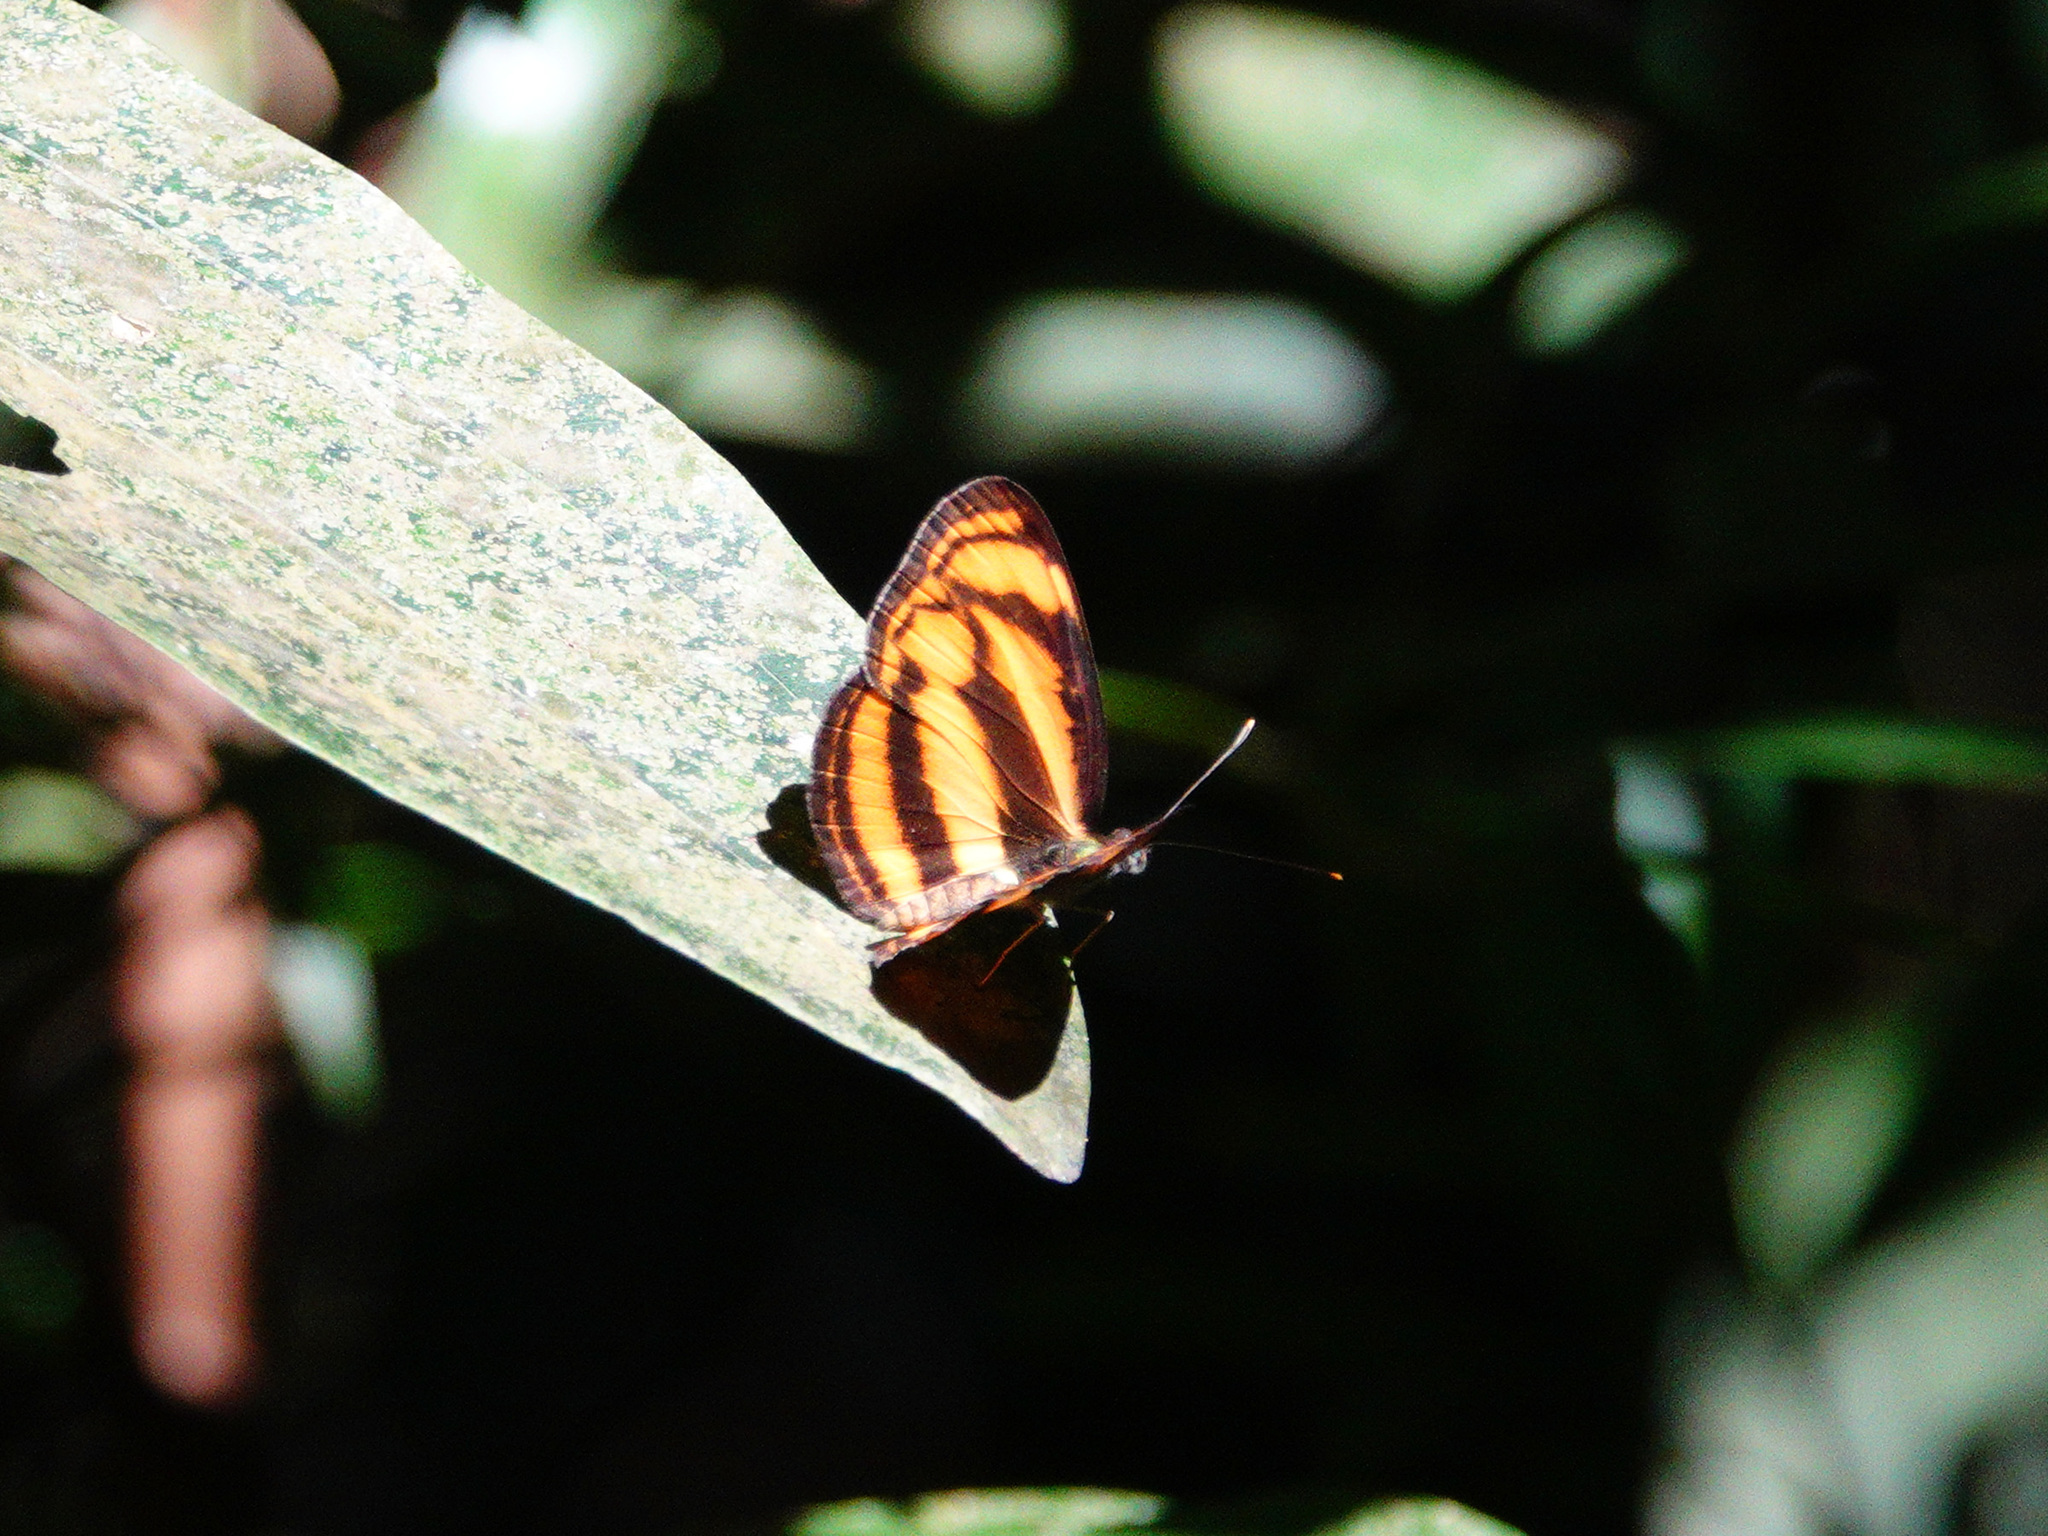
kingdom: Animalia
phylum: Arthropoda
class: Insecta
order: Lepidoptera
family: Nymphalidae
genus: Lasippa
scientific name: Lasippa tiga
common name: Malayan lascar
